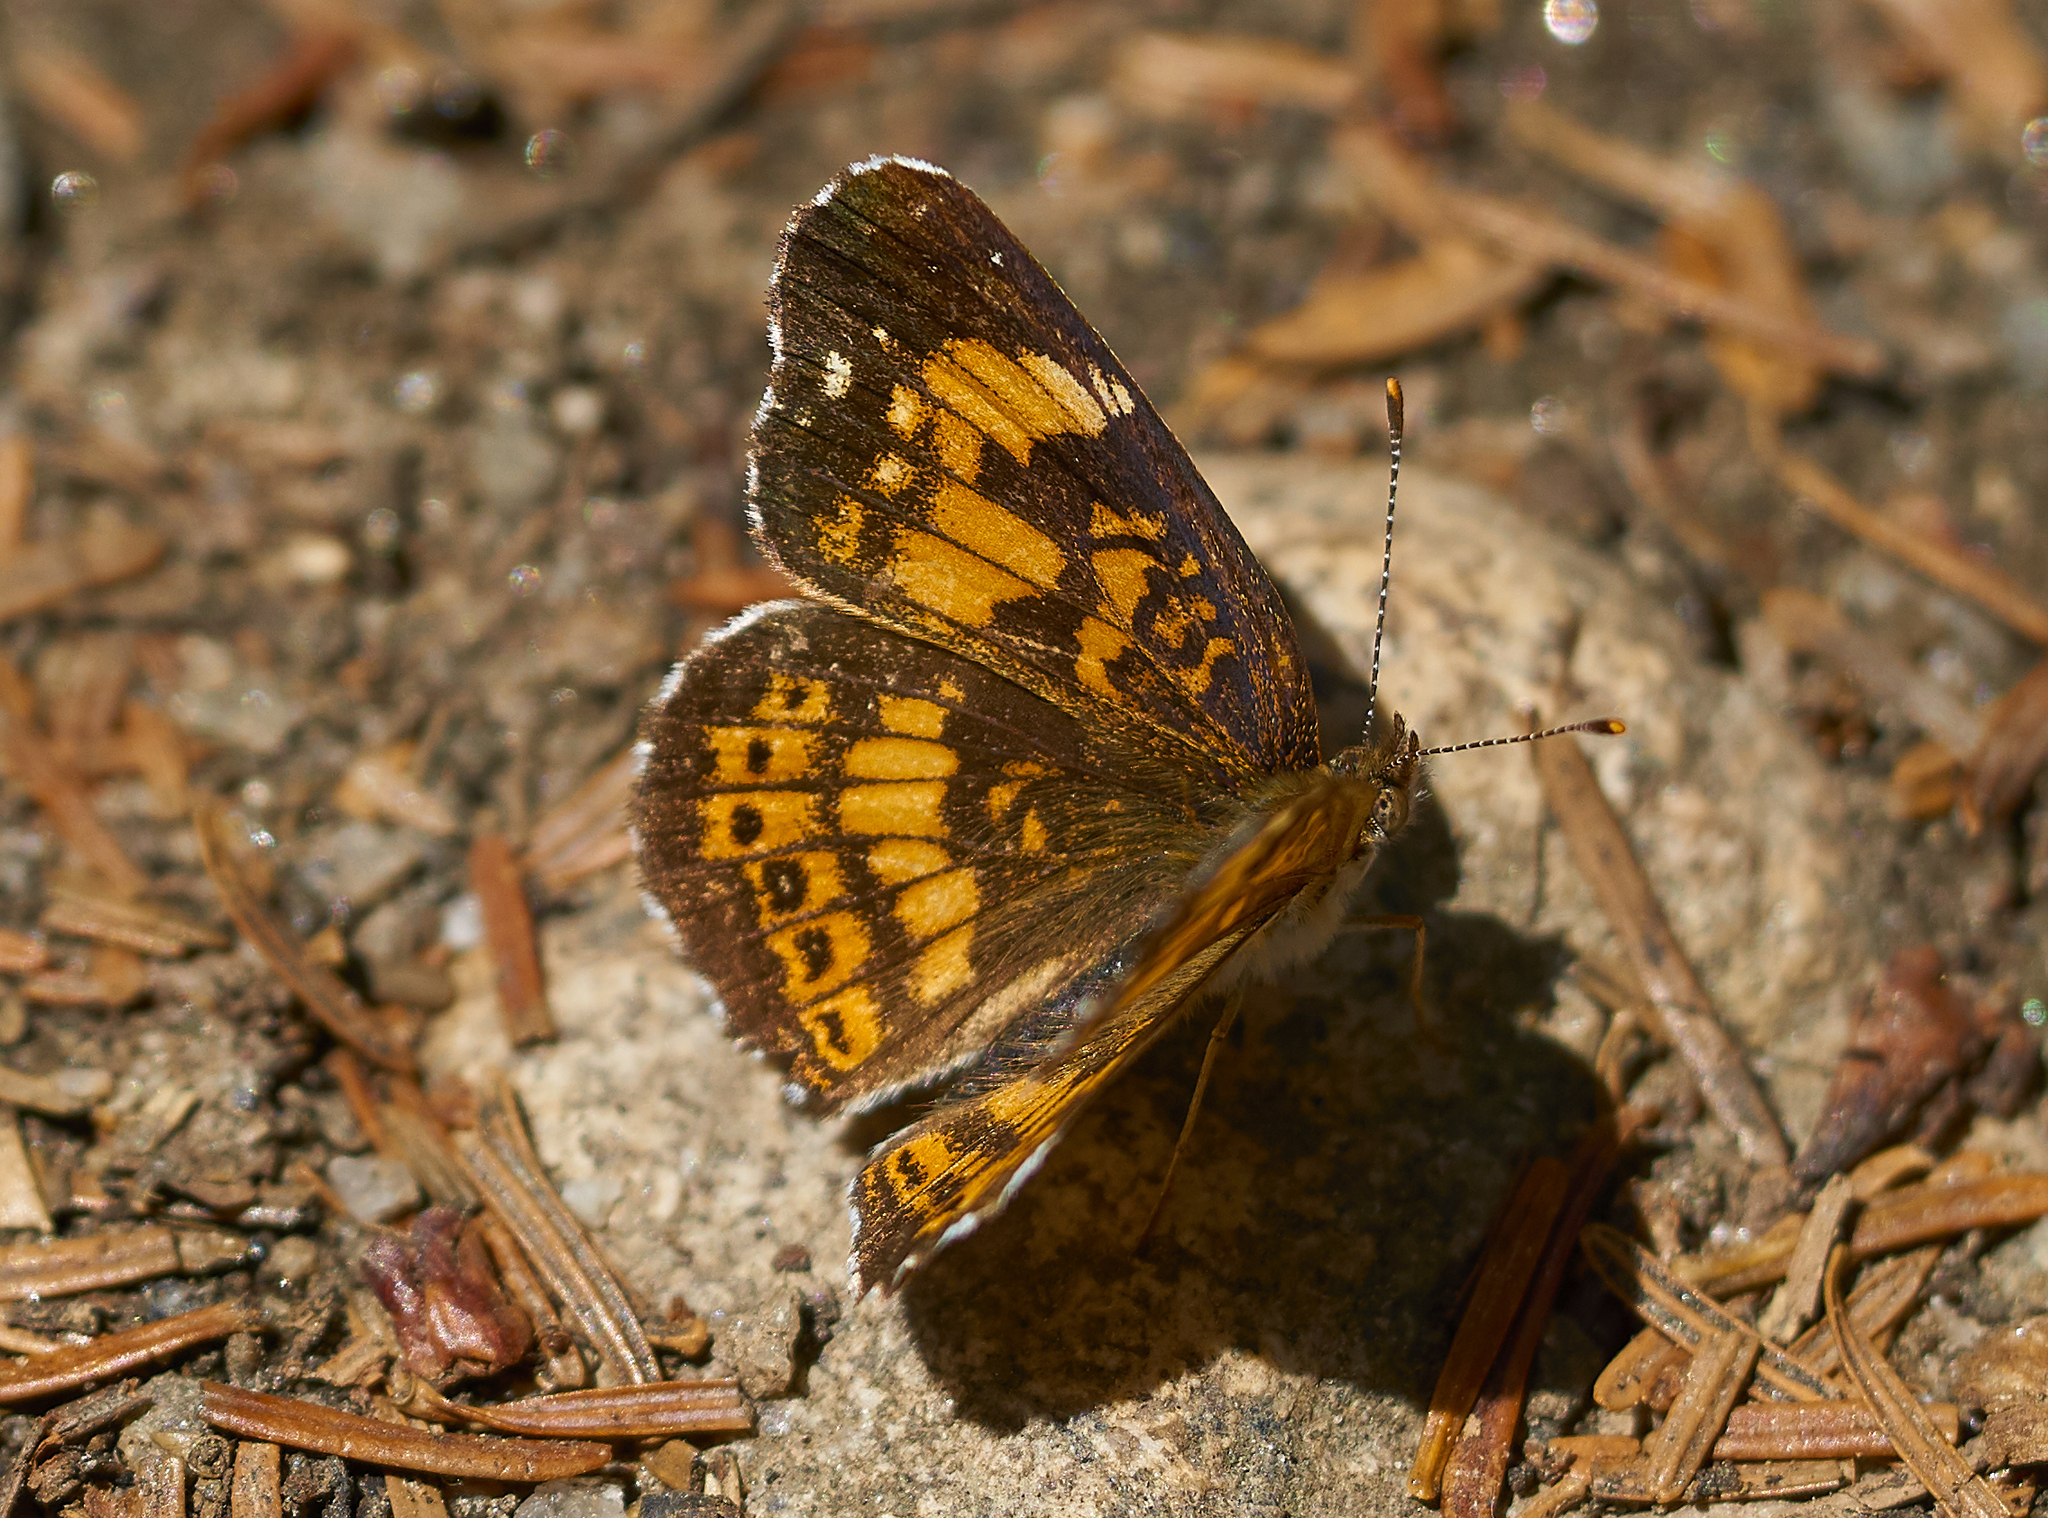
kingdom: Animalia
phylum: Arthropoda
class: Insecta
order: Lepidoptera
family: Nymphalidae
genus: Chlosyne
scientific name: Chlosyne nycteis
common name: Silvery checkerspot
